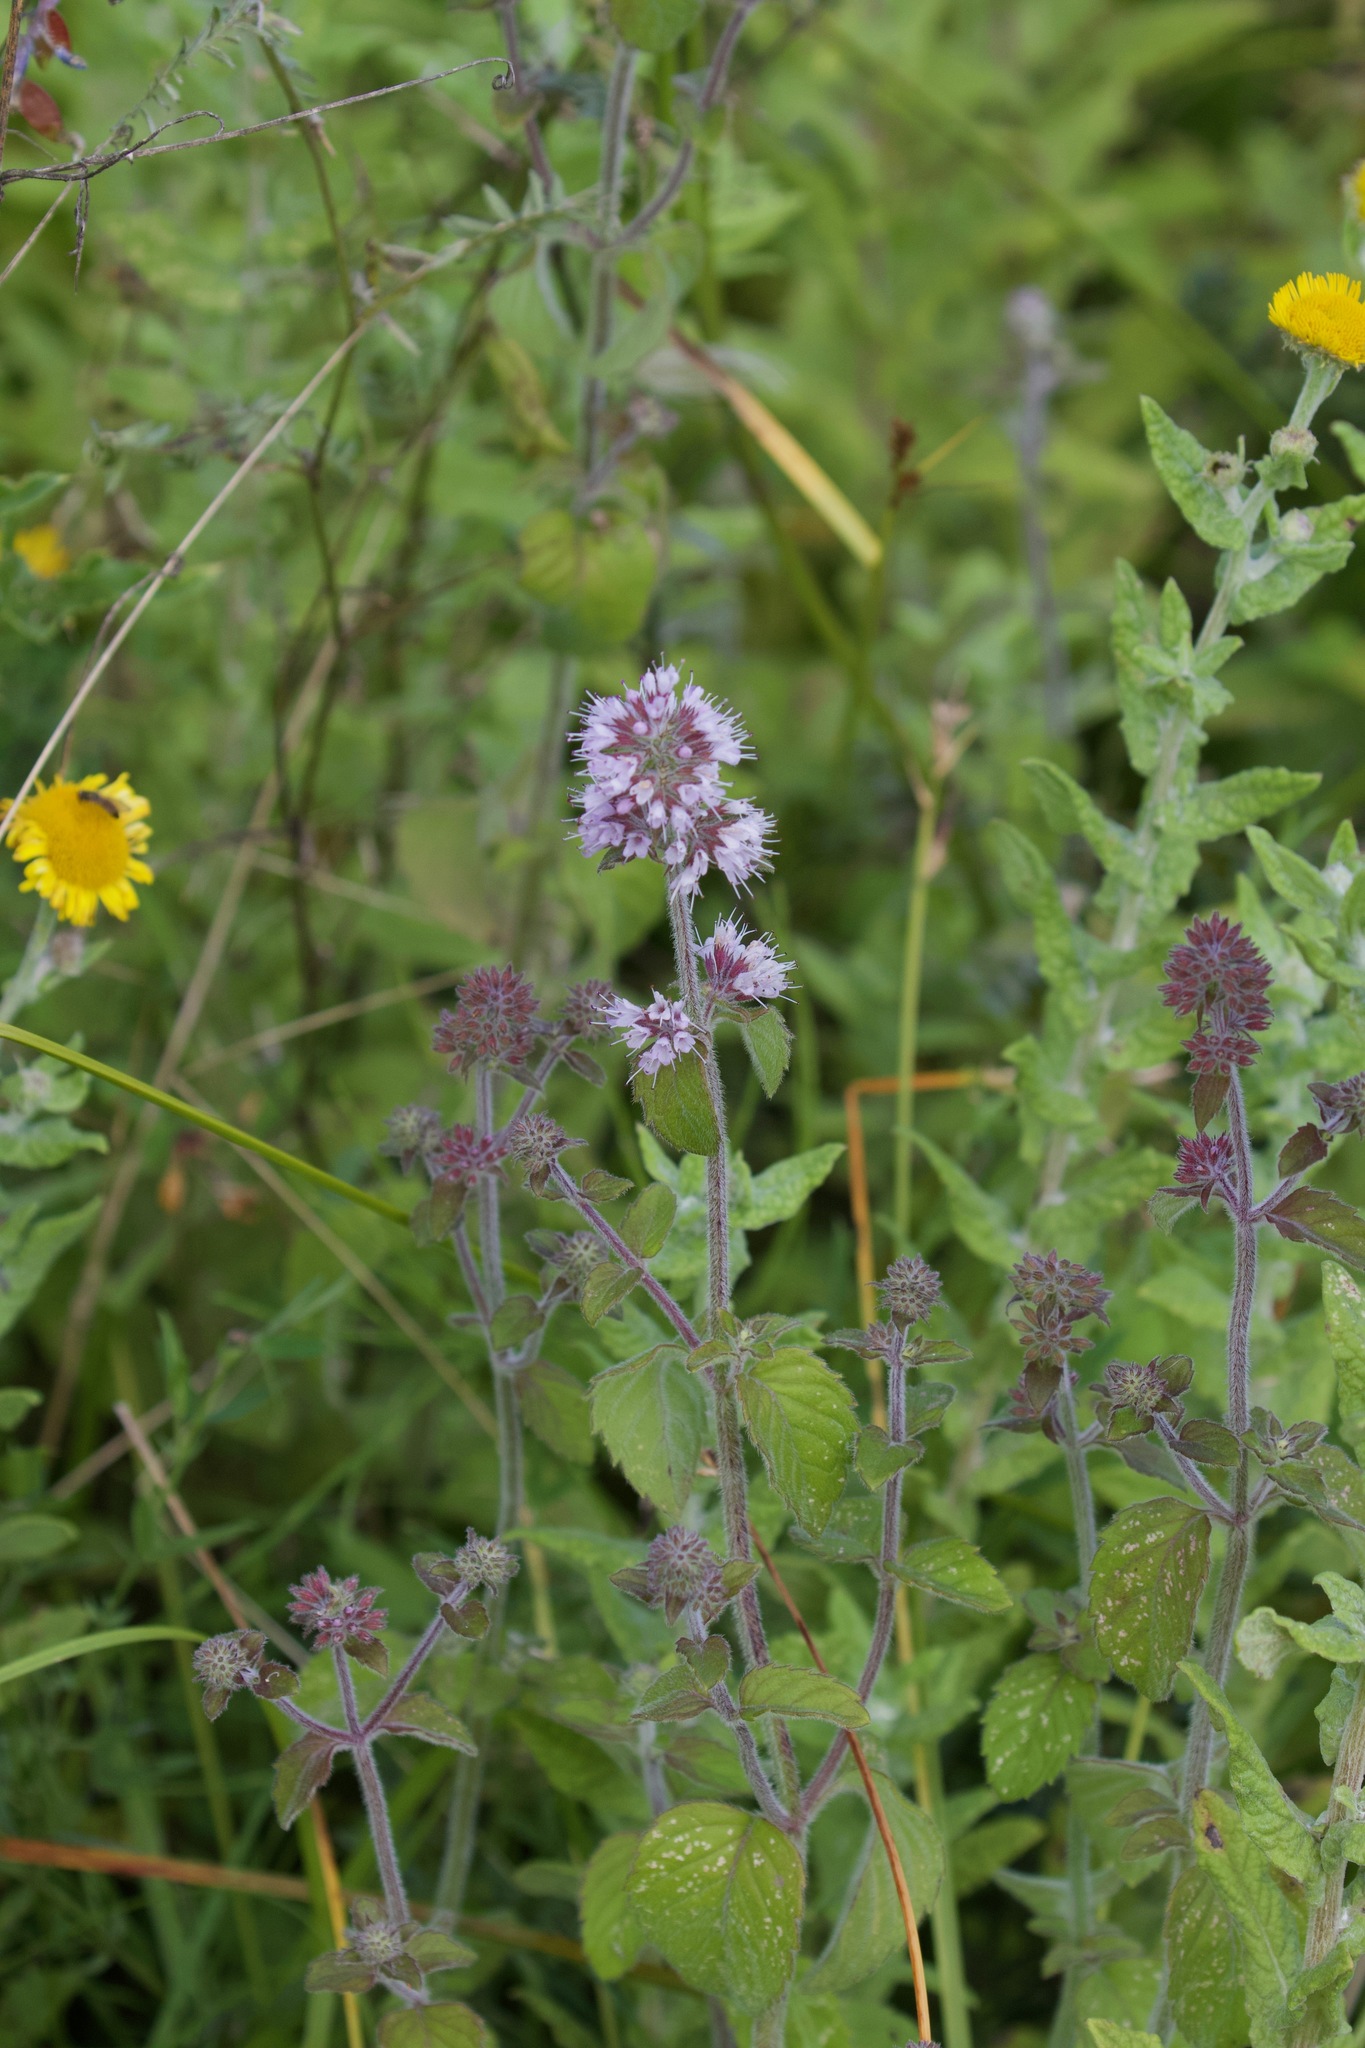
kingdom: Plantae
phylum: Tracheophyta
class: Magnoliopsida
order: Lamiales
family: Lamiaceae
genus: Mentha
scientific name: Mentha aquatica
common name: Water mint
